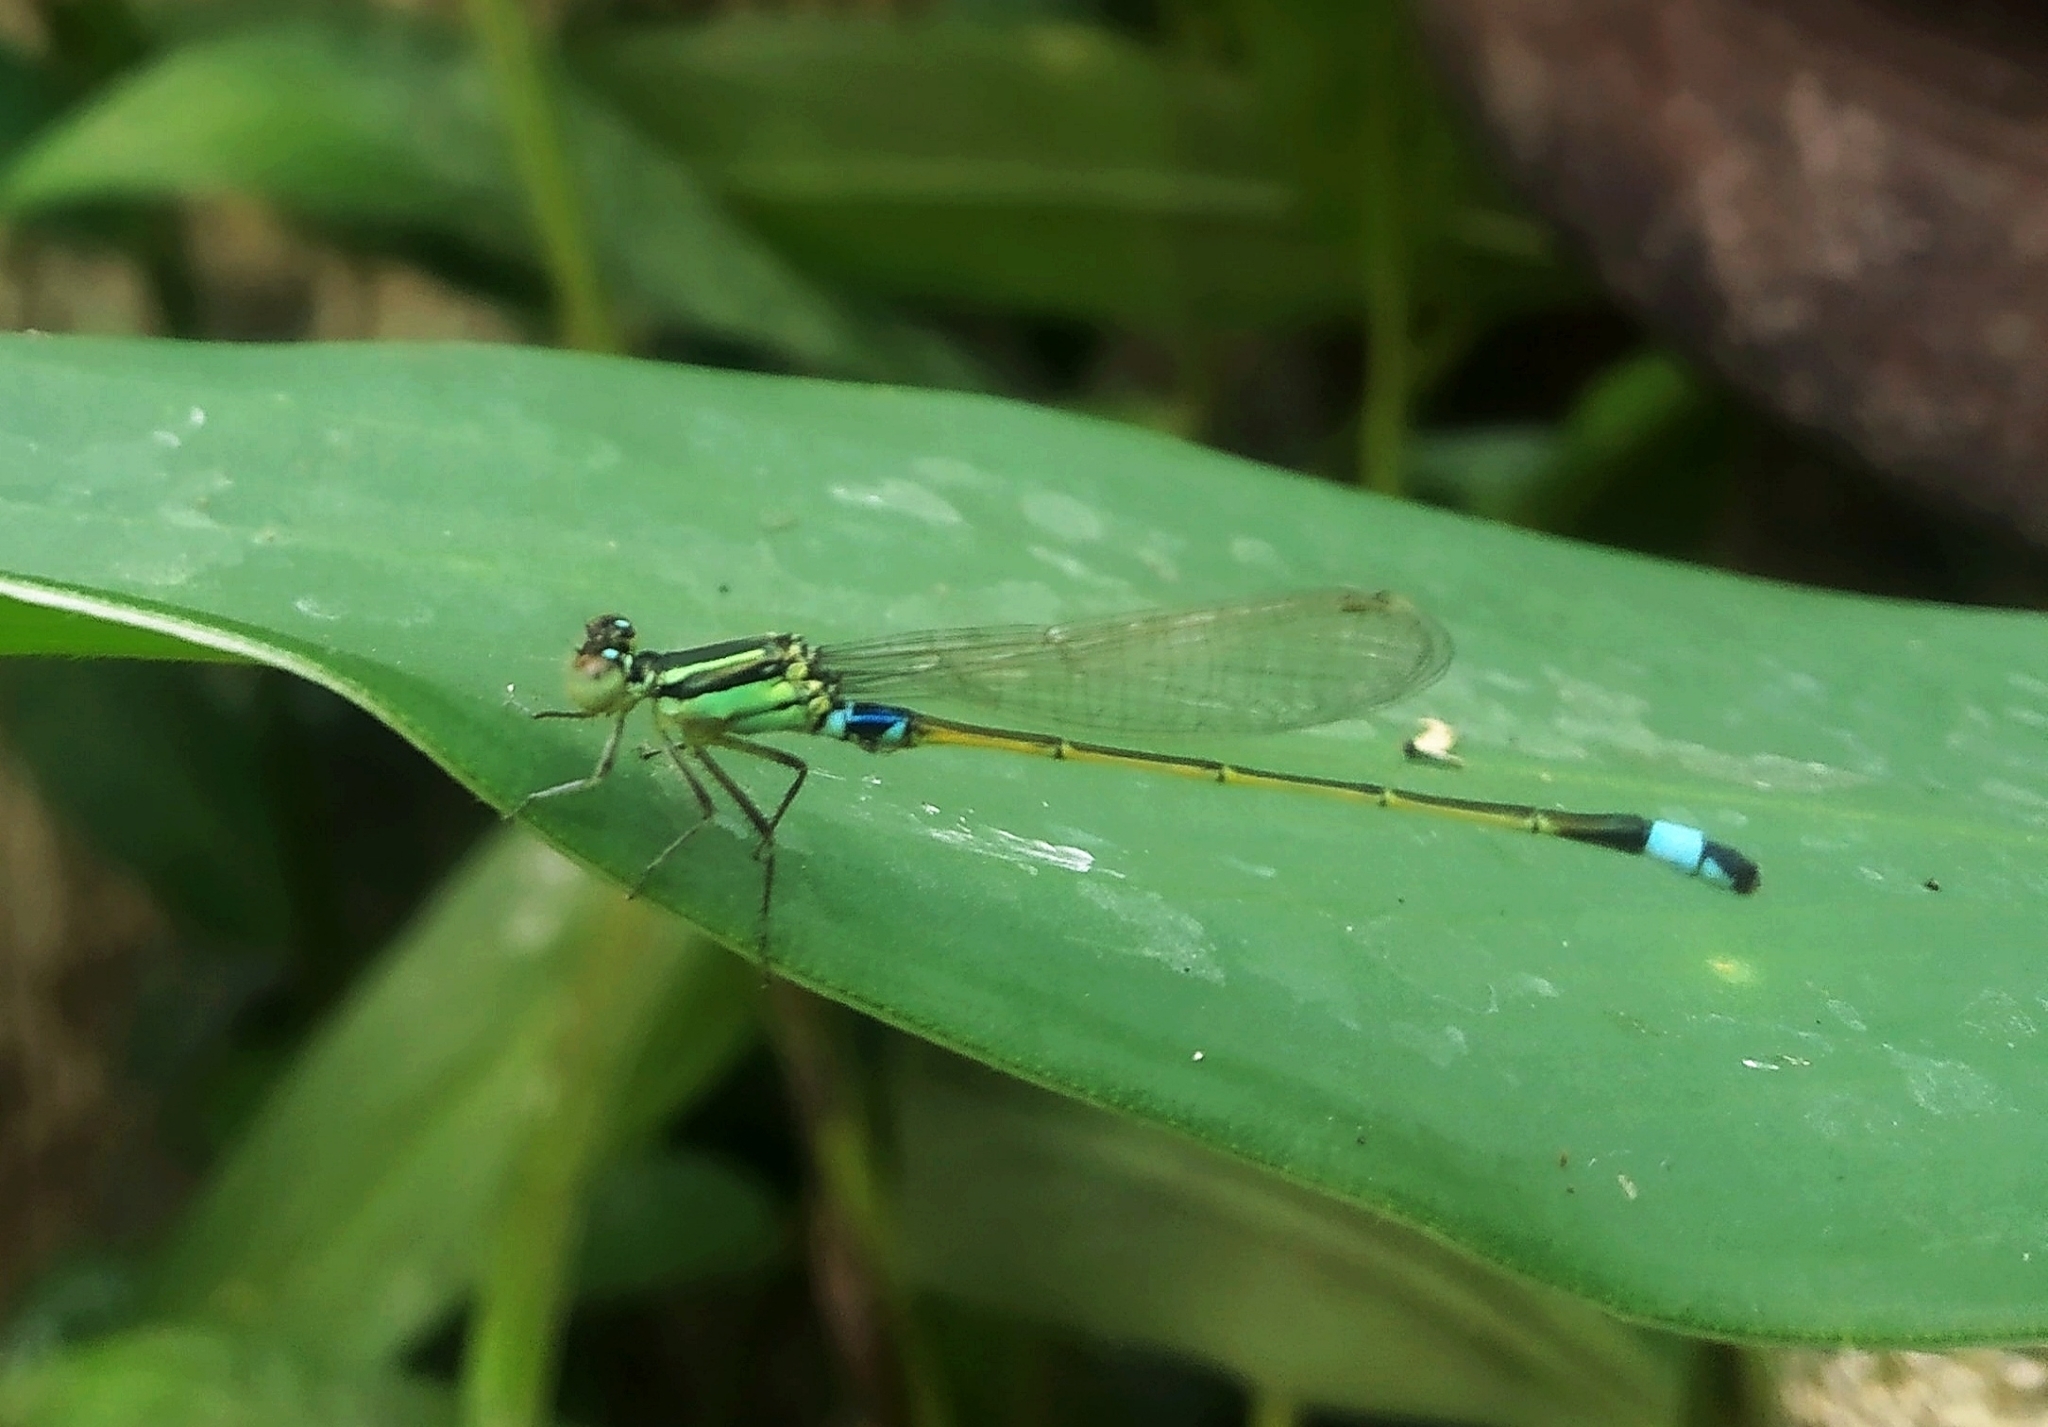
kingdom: Animalia
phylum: Arthropoda
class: Insecta
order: Odonata
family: Coenagrionidae
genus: Ischnura
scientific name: Ischnura senegalensis
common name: Tropical bluetail
